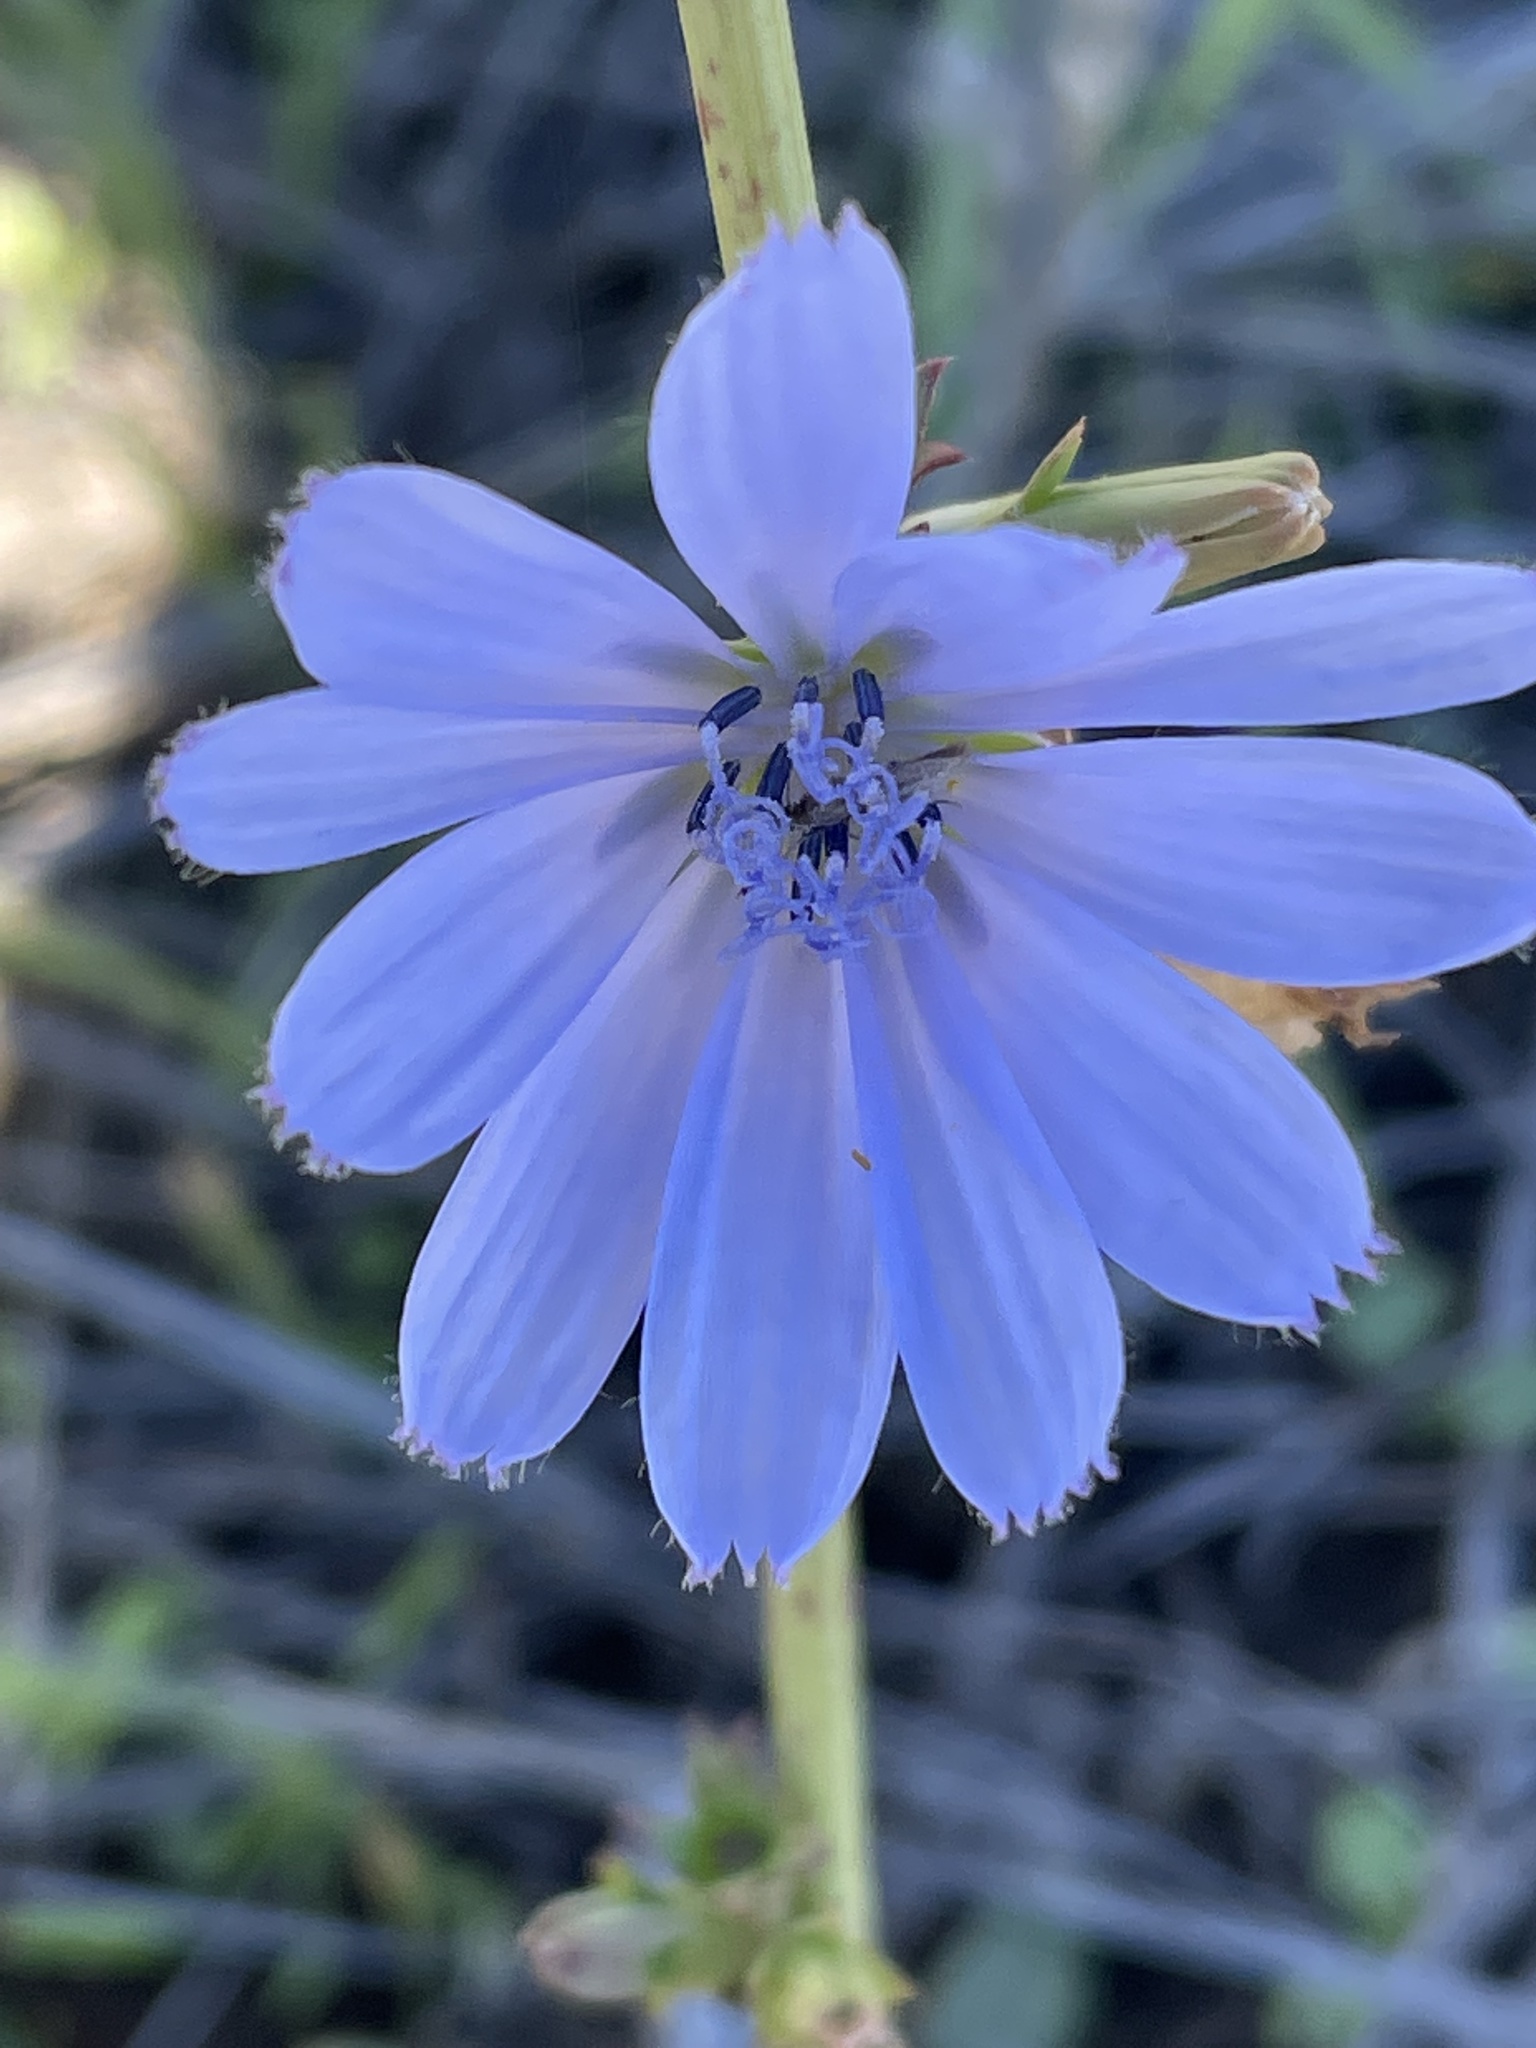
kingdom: Plantae
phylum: Tracheophyta
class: Magnoliopsida
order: Asterales
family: Asteraceae
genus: Cichorium
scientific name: Cichorium intybus
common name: Chicory
